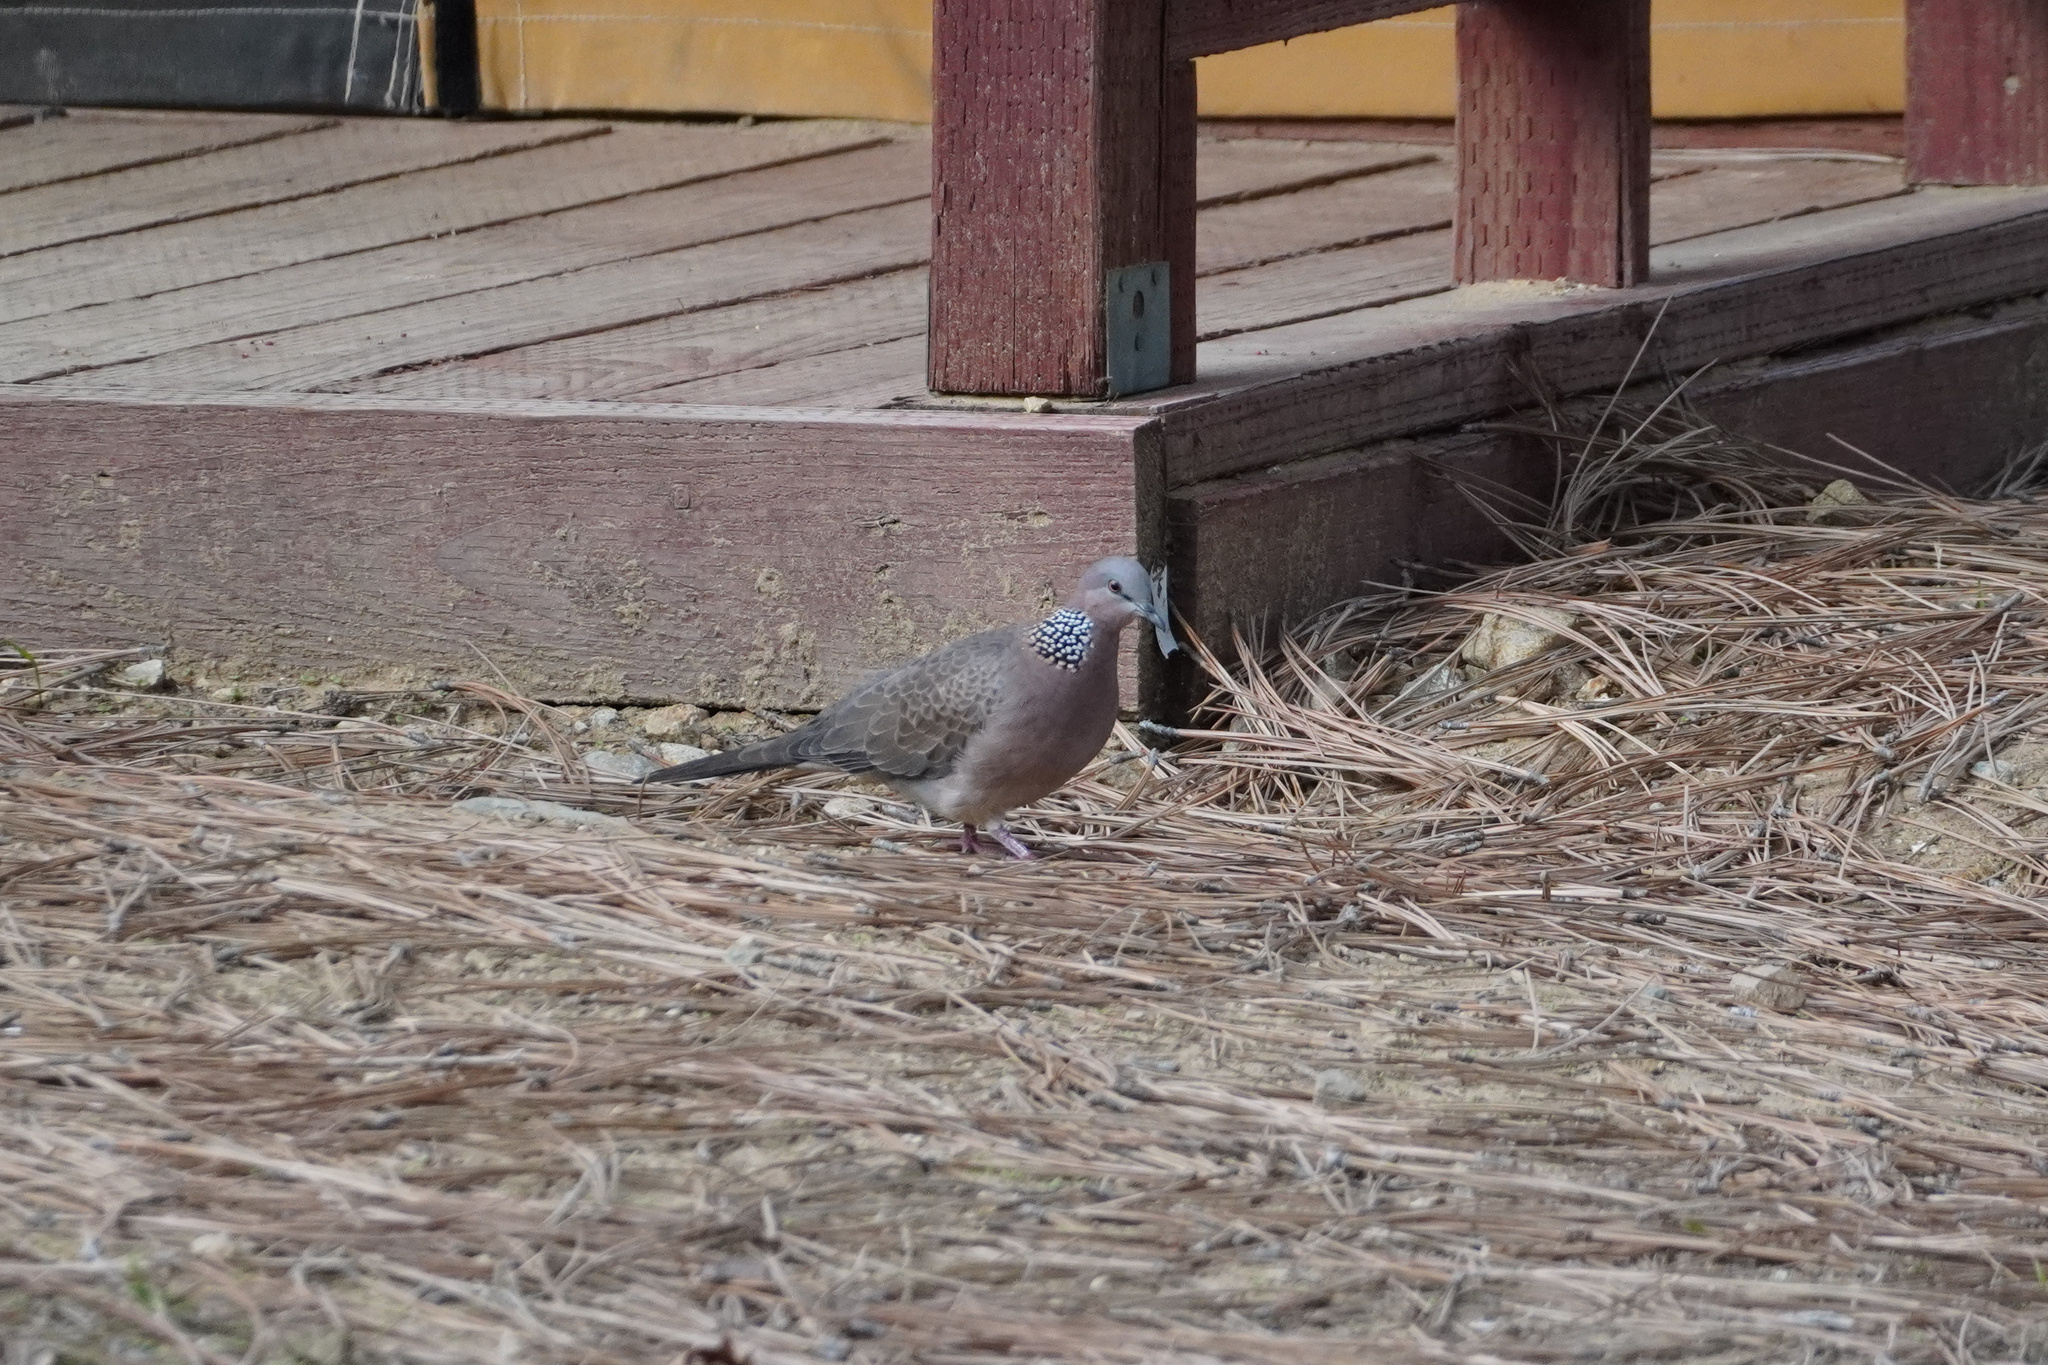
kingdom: Animalia
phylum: Chordata
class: Aves
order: Columbiformes
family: Columbidae
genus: Spilopelia
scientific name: Spilopelia chinensis
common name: Spotted dove
